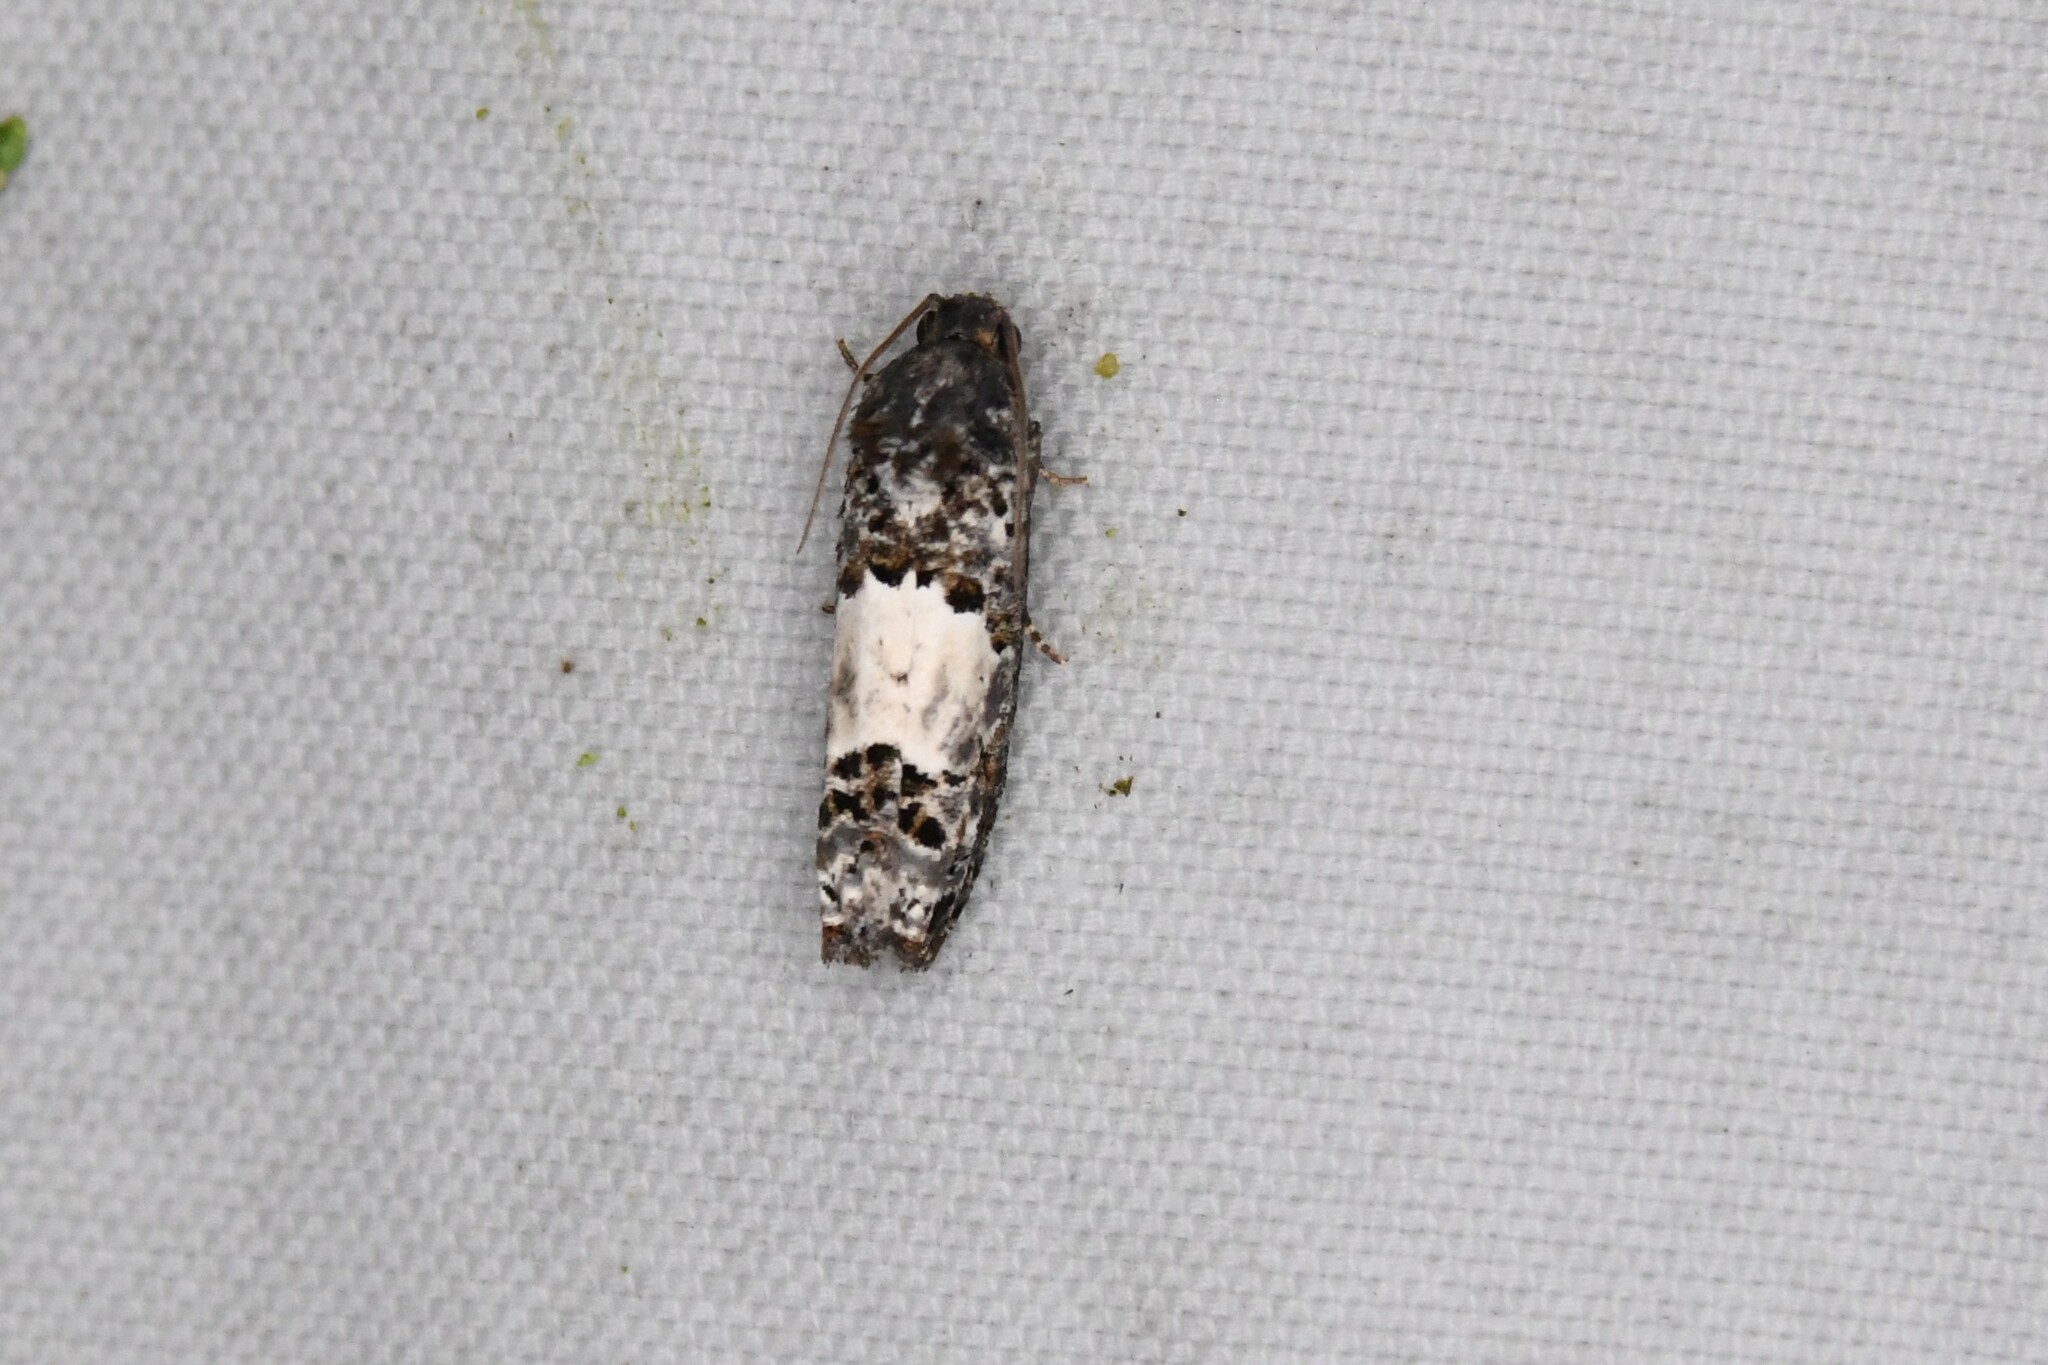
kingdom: Animalia
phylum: Arthropoda
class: Insecta
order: Lepidoptera
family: Tortricidae
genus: Epiblema
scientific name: Epiblema carolinana
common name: Gray-blotched epiblema moth
